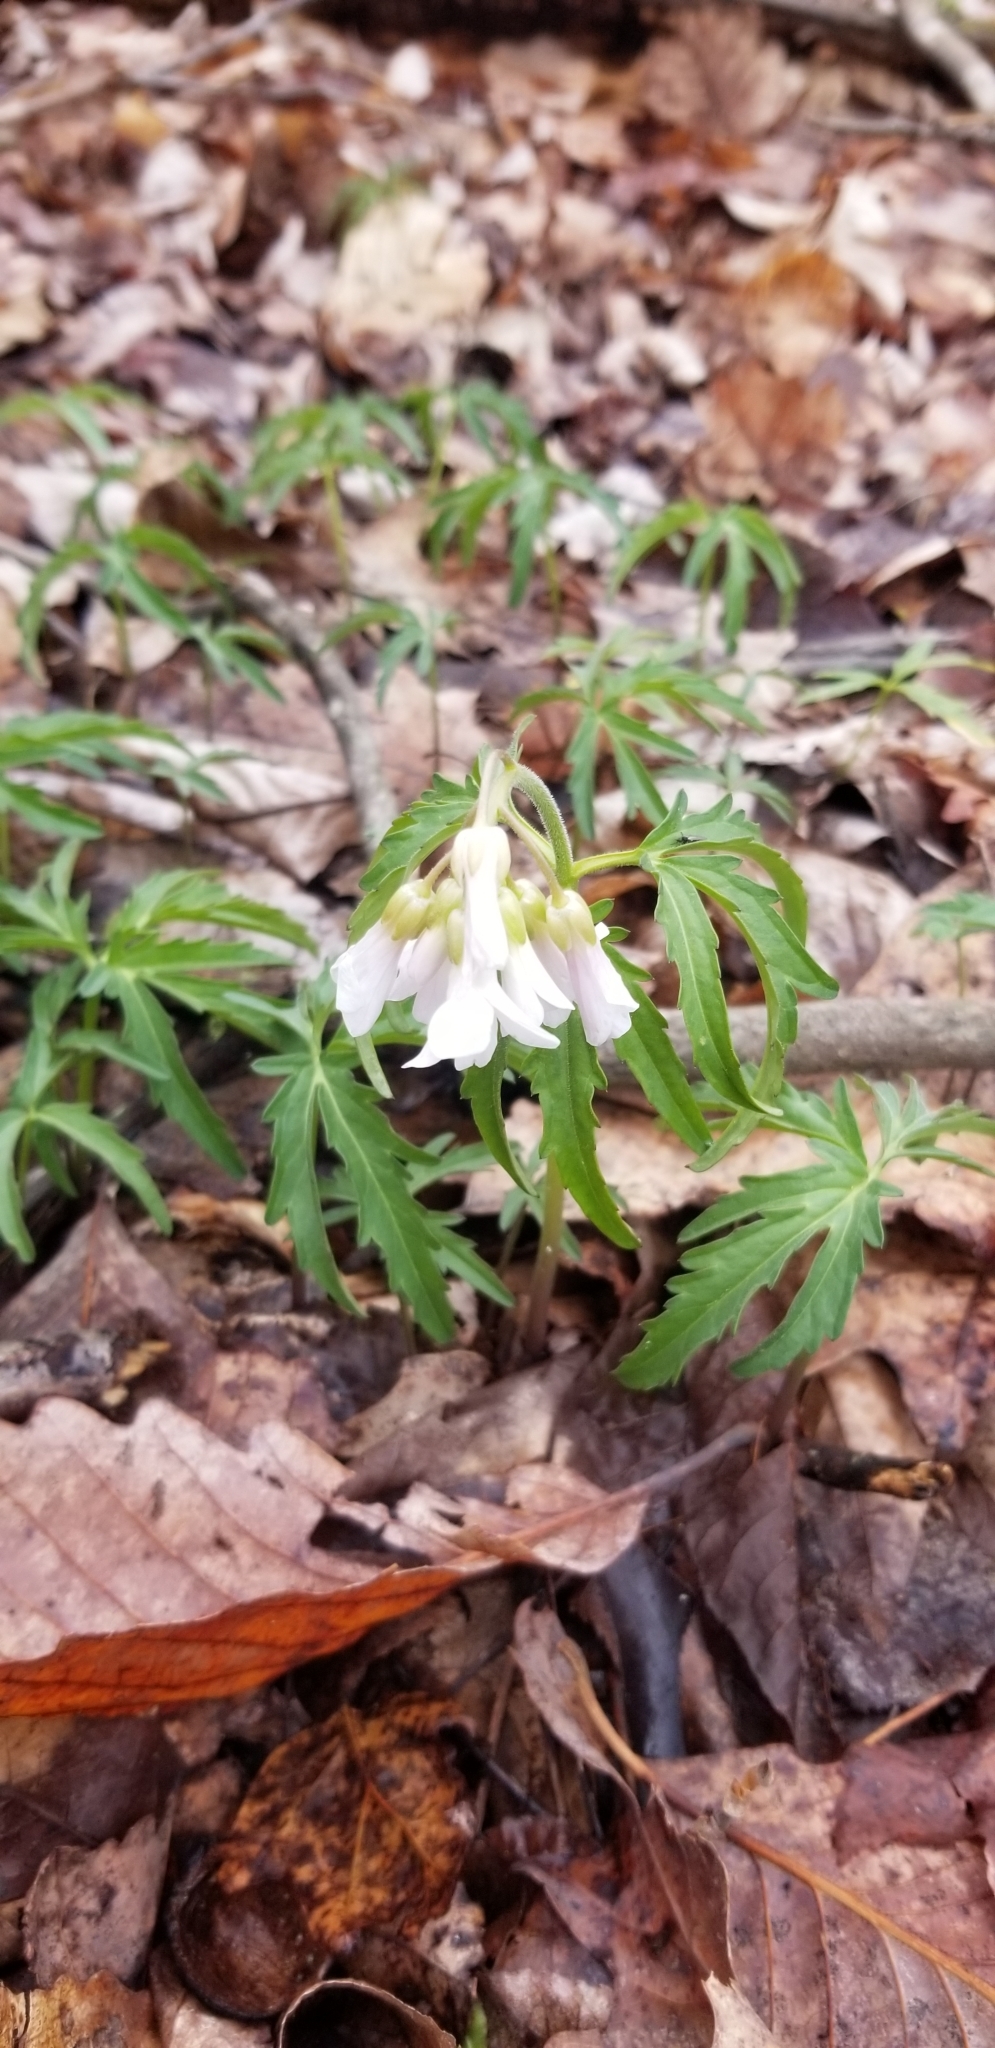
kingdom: Plantae
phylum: Tracheophyta
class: Magnoliopsida
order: Brassicales
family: Brassicaceae
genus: Cardamine
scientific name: Cardamine concatenata
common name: Cut-leaf toothcup
